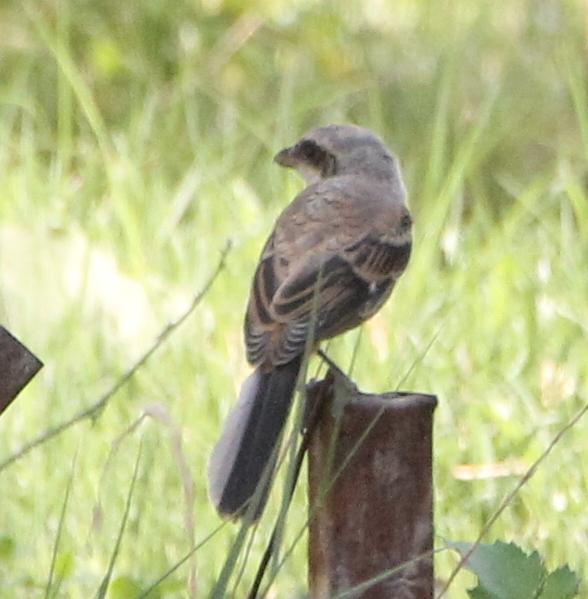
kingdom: Animalia
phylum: Chordata
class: Aves
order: Passeriformes
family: Laniidae
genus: Lanius
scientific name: Lanius schach
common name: Long-tailed shrike
